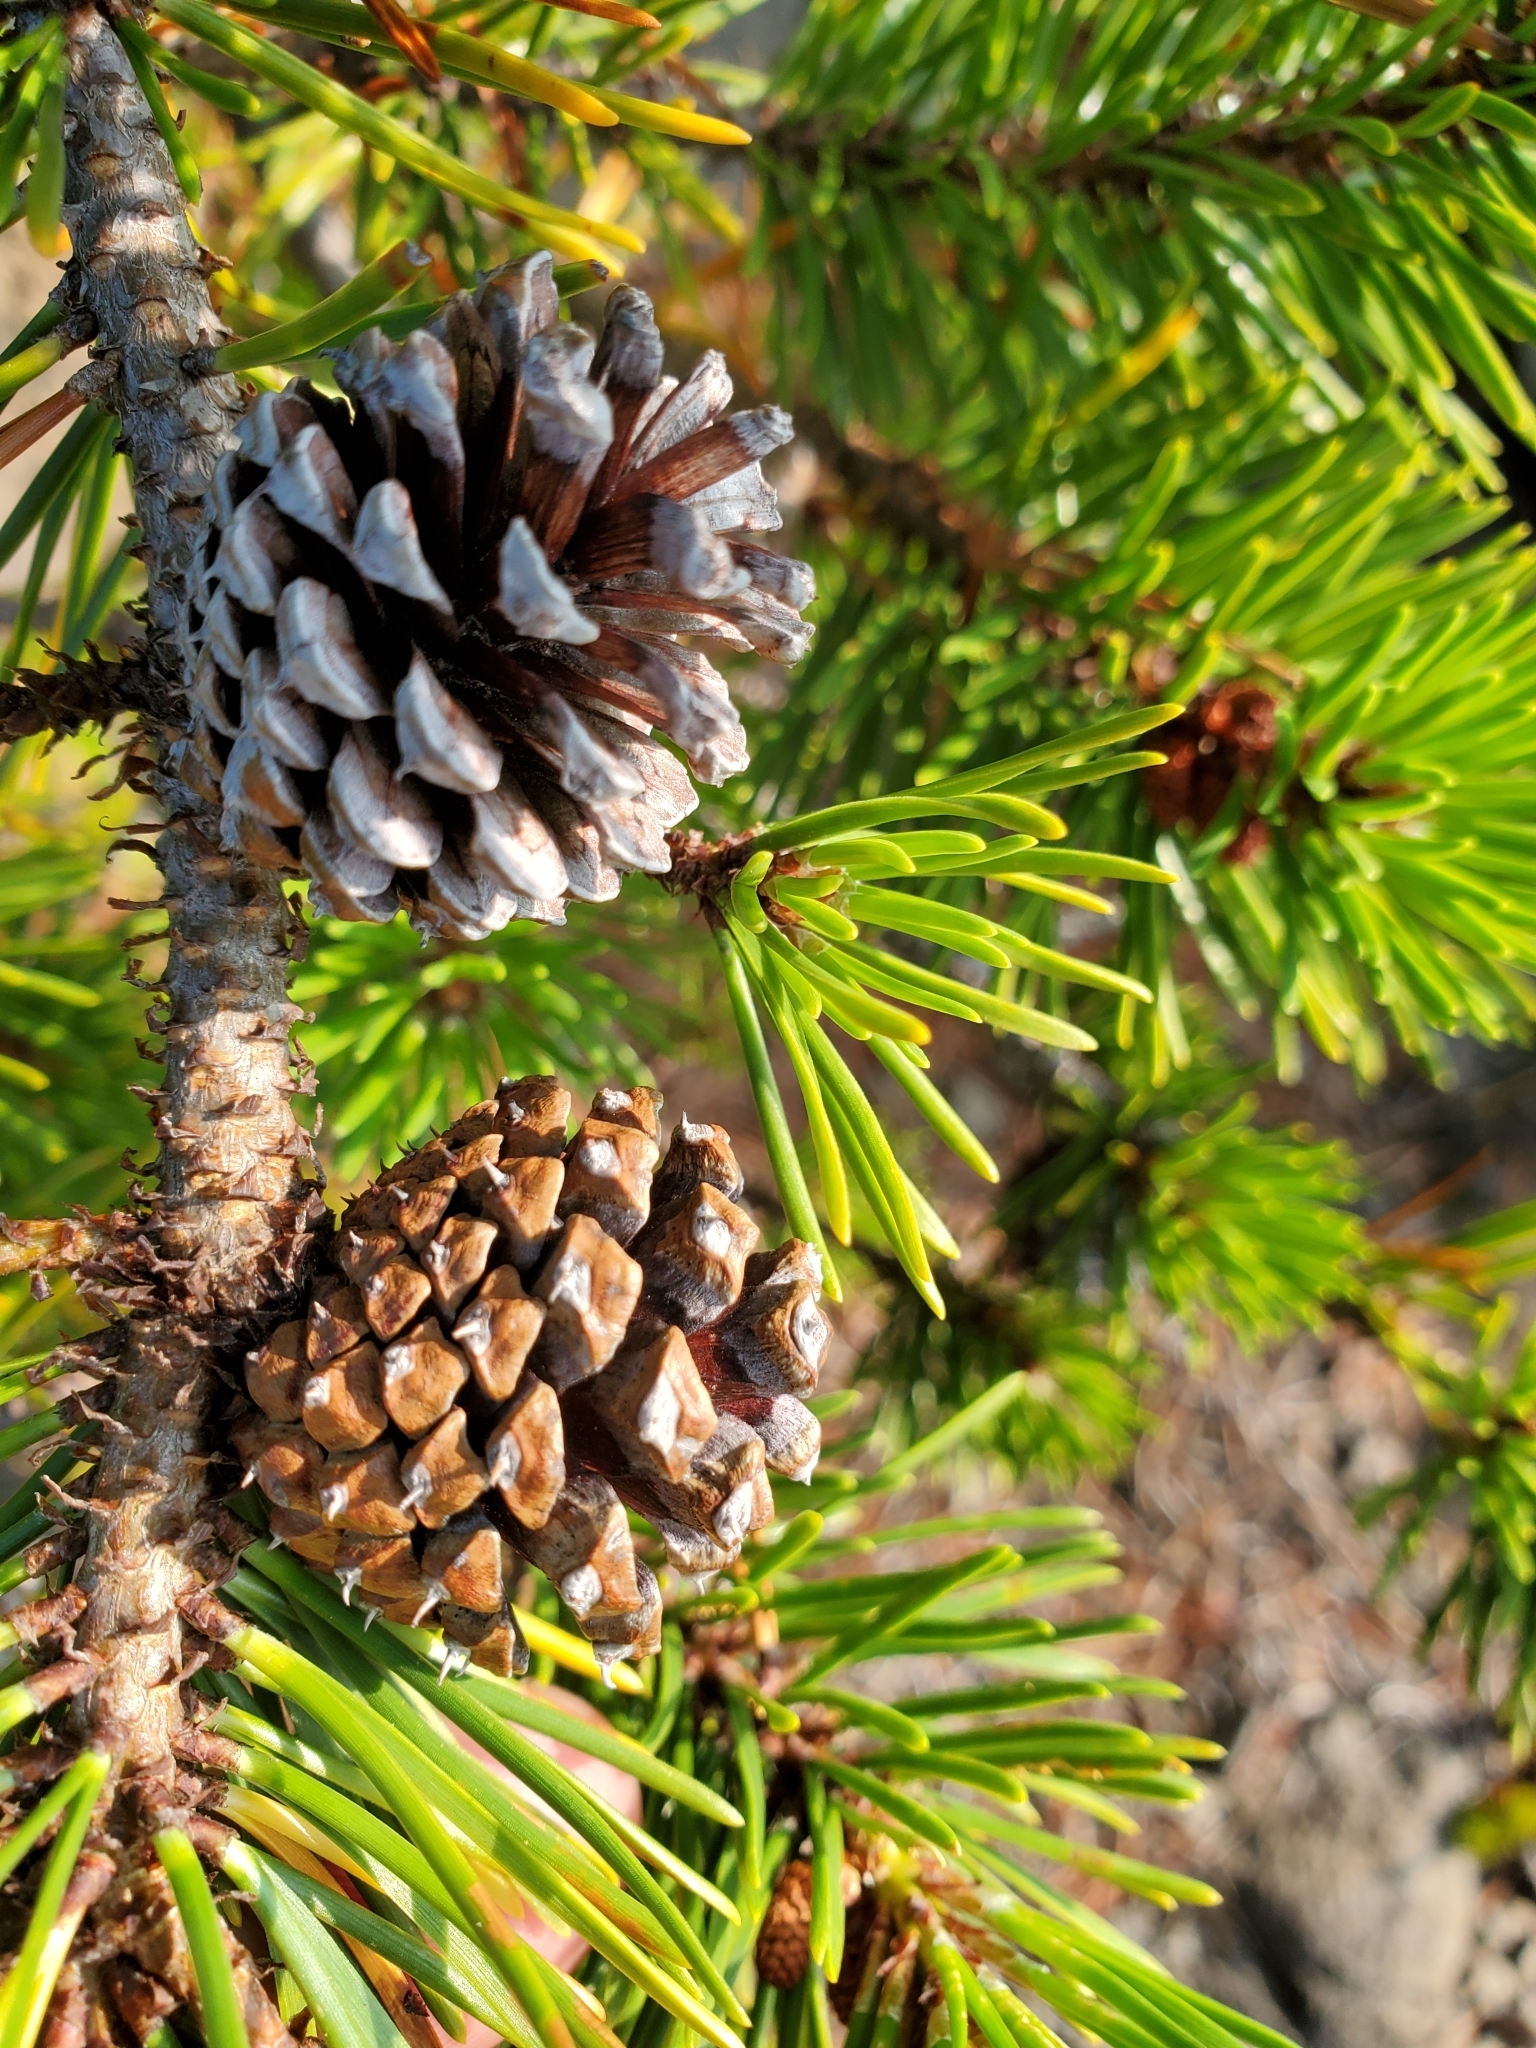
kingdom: Plantae
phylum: Tracheophyta
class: Pinopsida
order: Pinales
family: Pinaceae
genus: Pinus
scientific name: Pinus contorta
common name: Lodgepole pine
